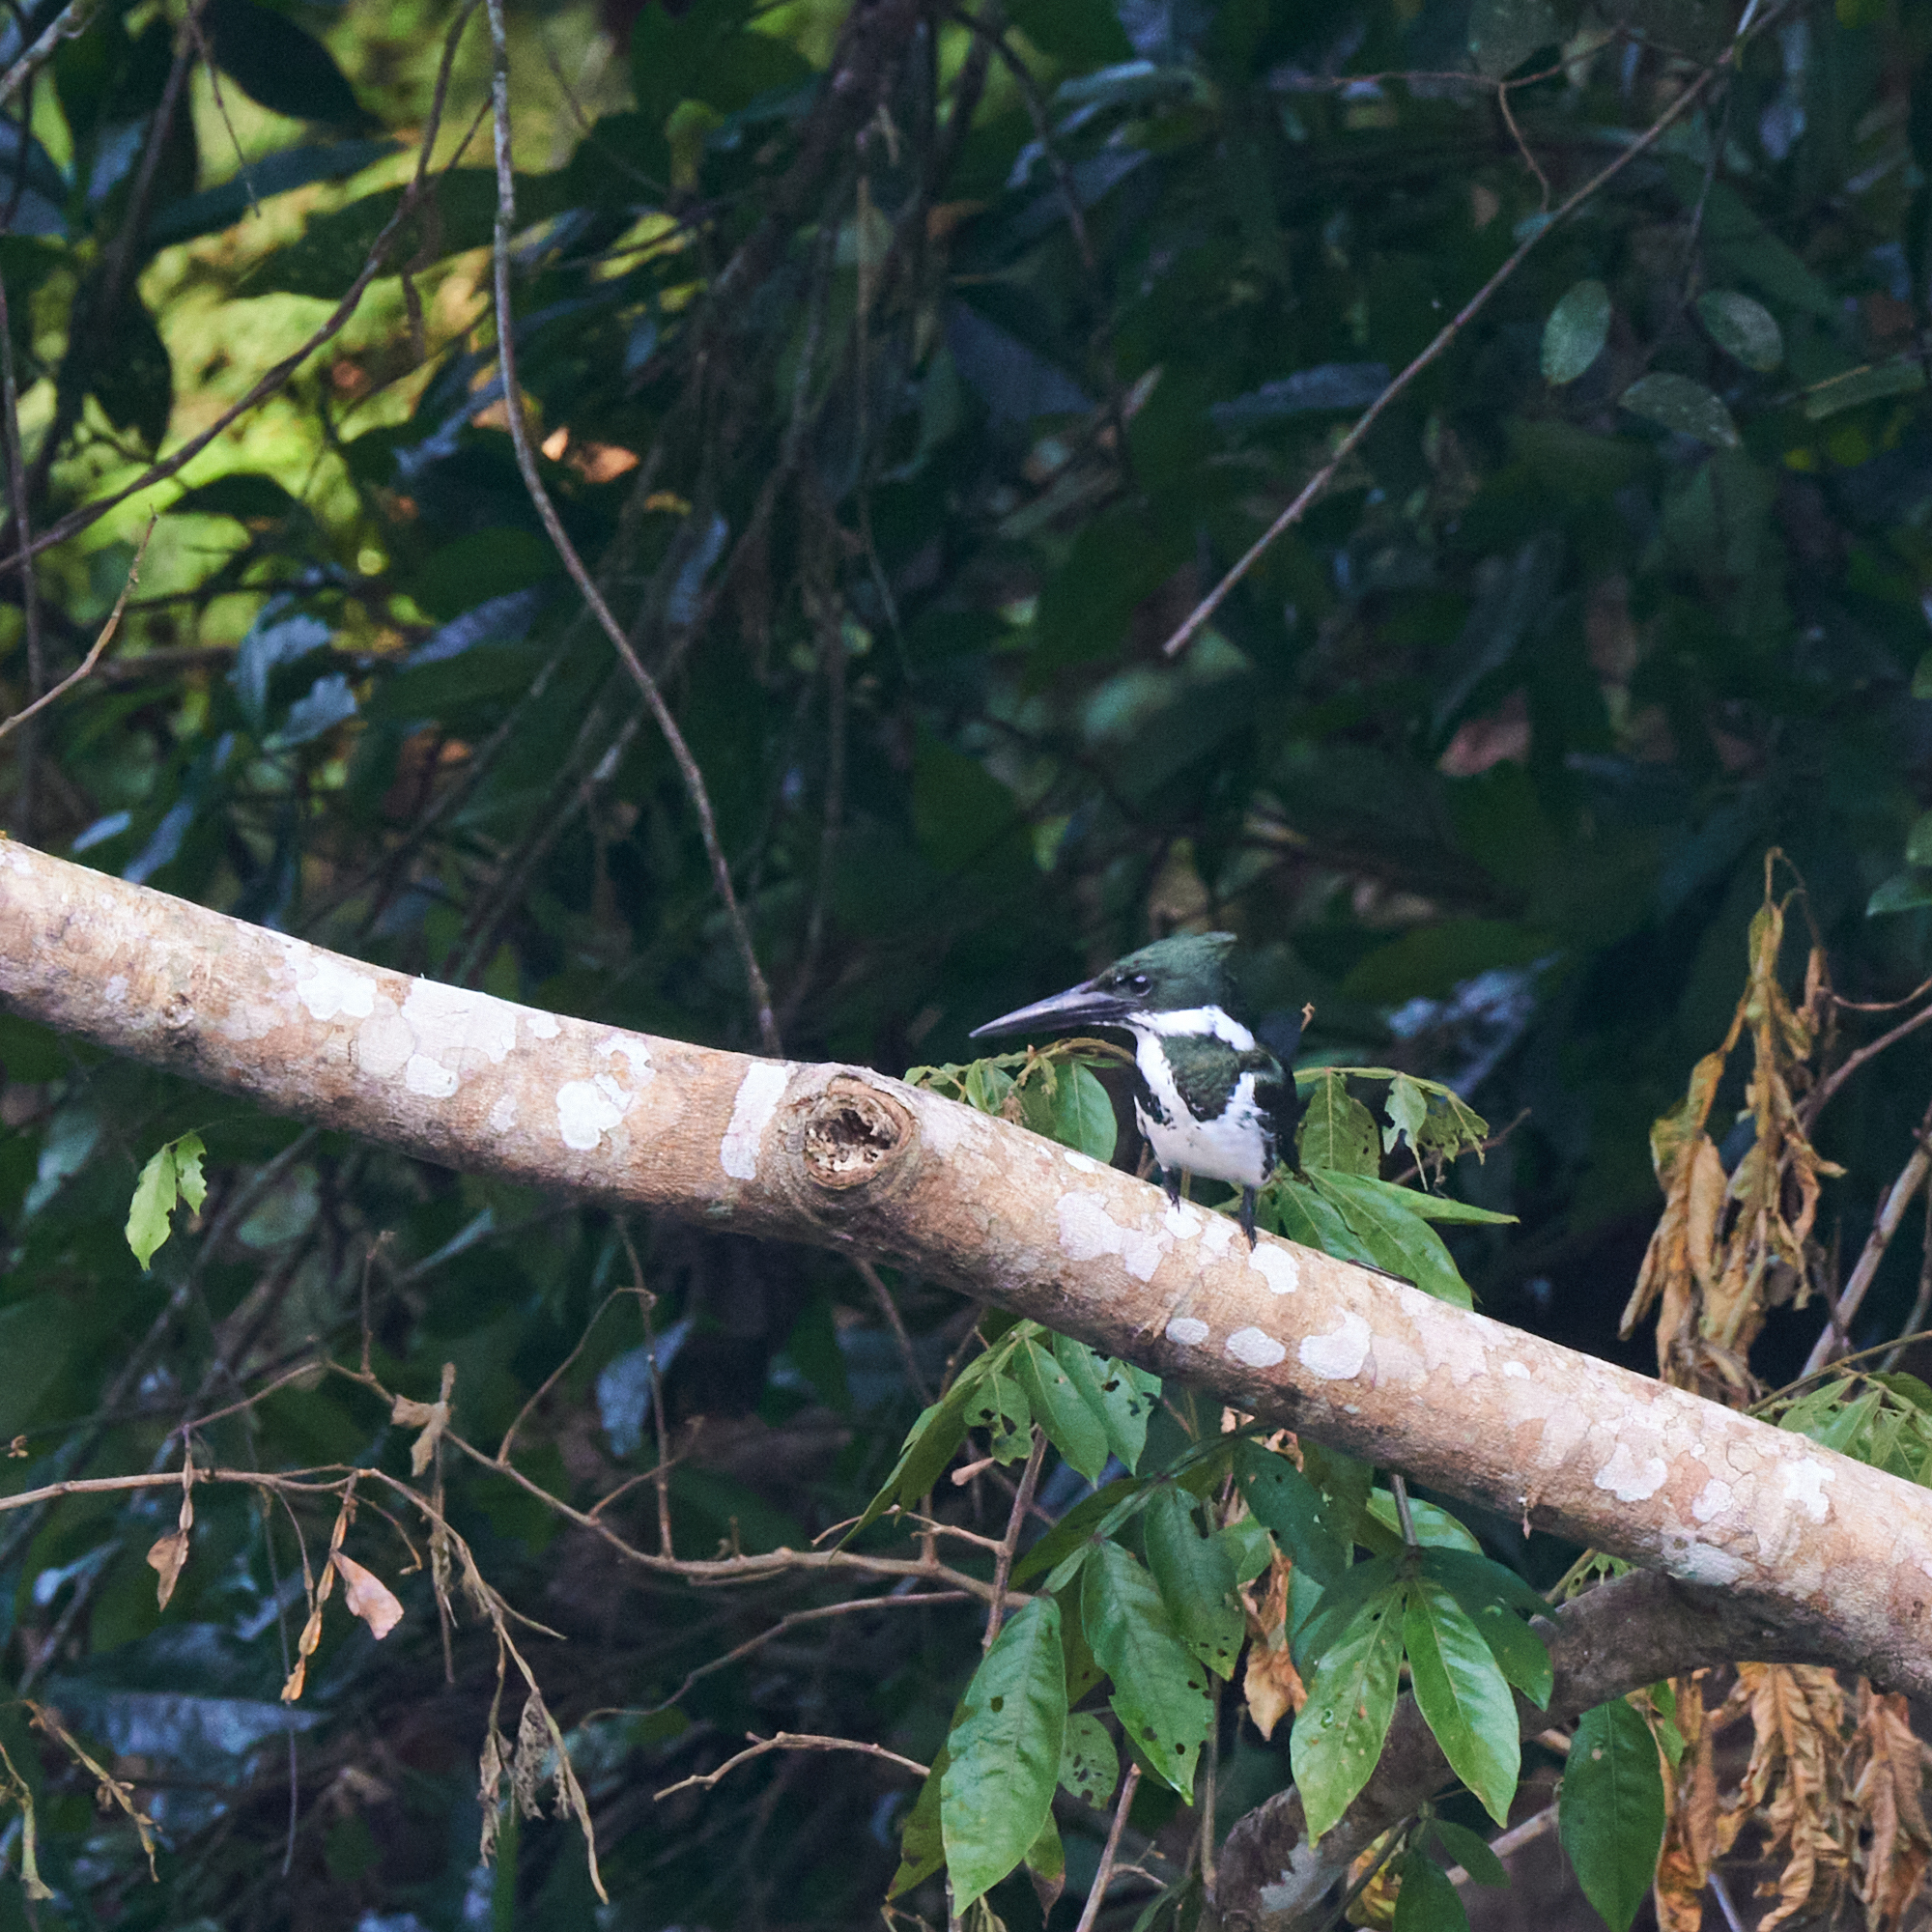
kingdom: Animalia
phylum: Chordata
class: Aves
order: Coraciiformes
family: Alcedinidae
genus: Chloroceryle
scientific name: Chloroceryle amazona
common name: Amazon kingfisher
